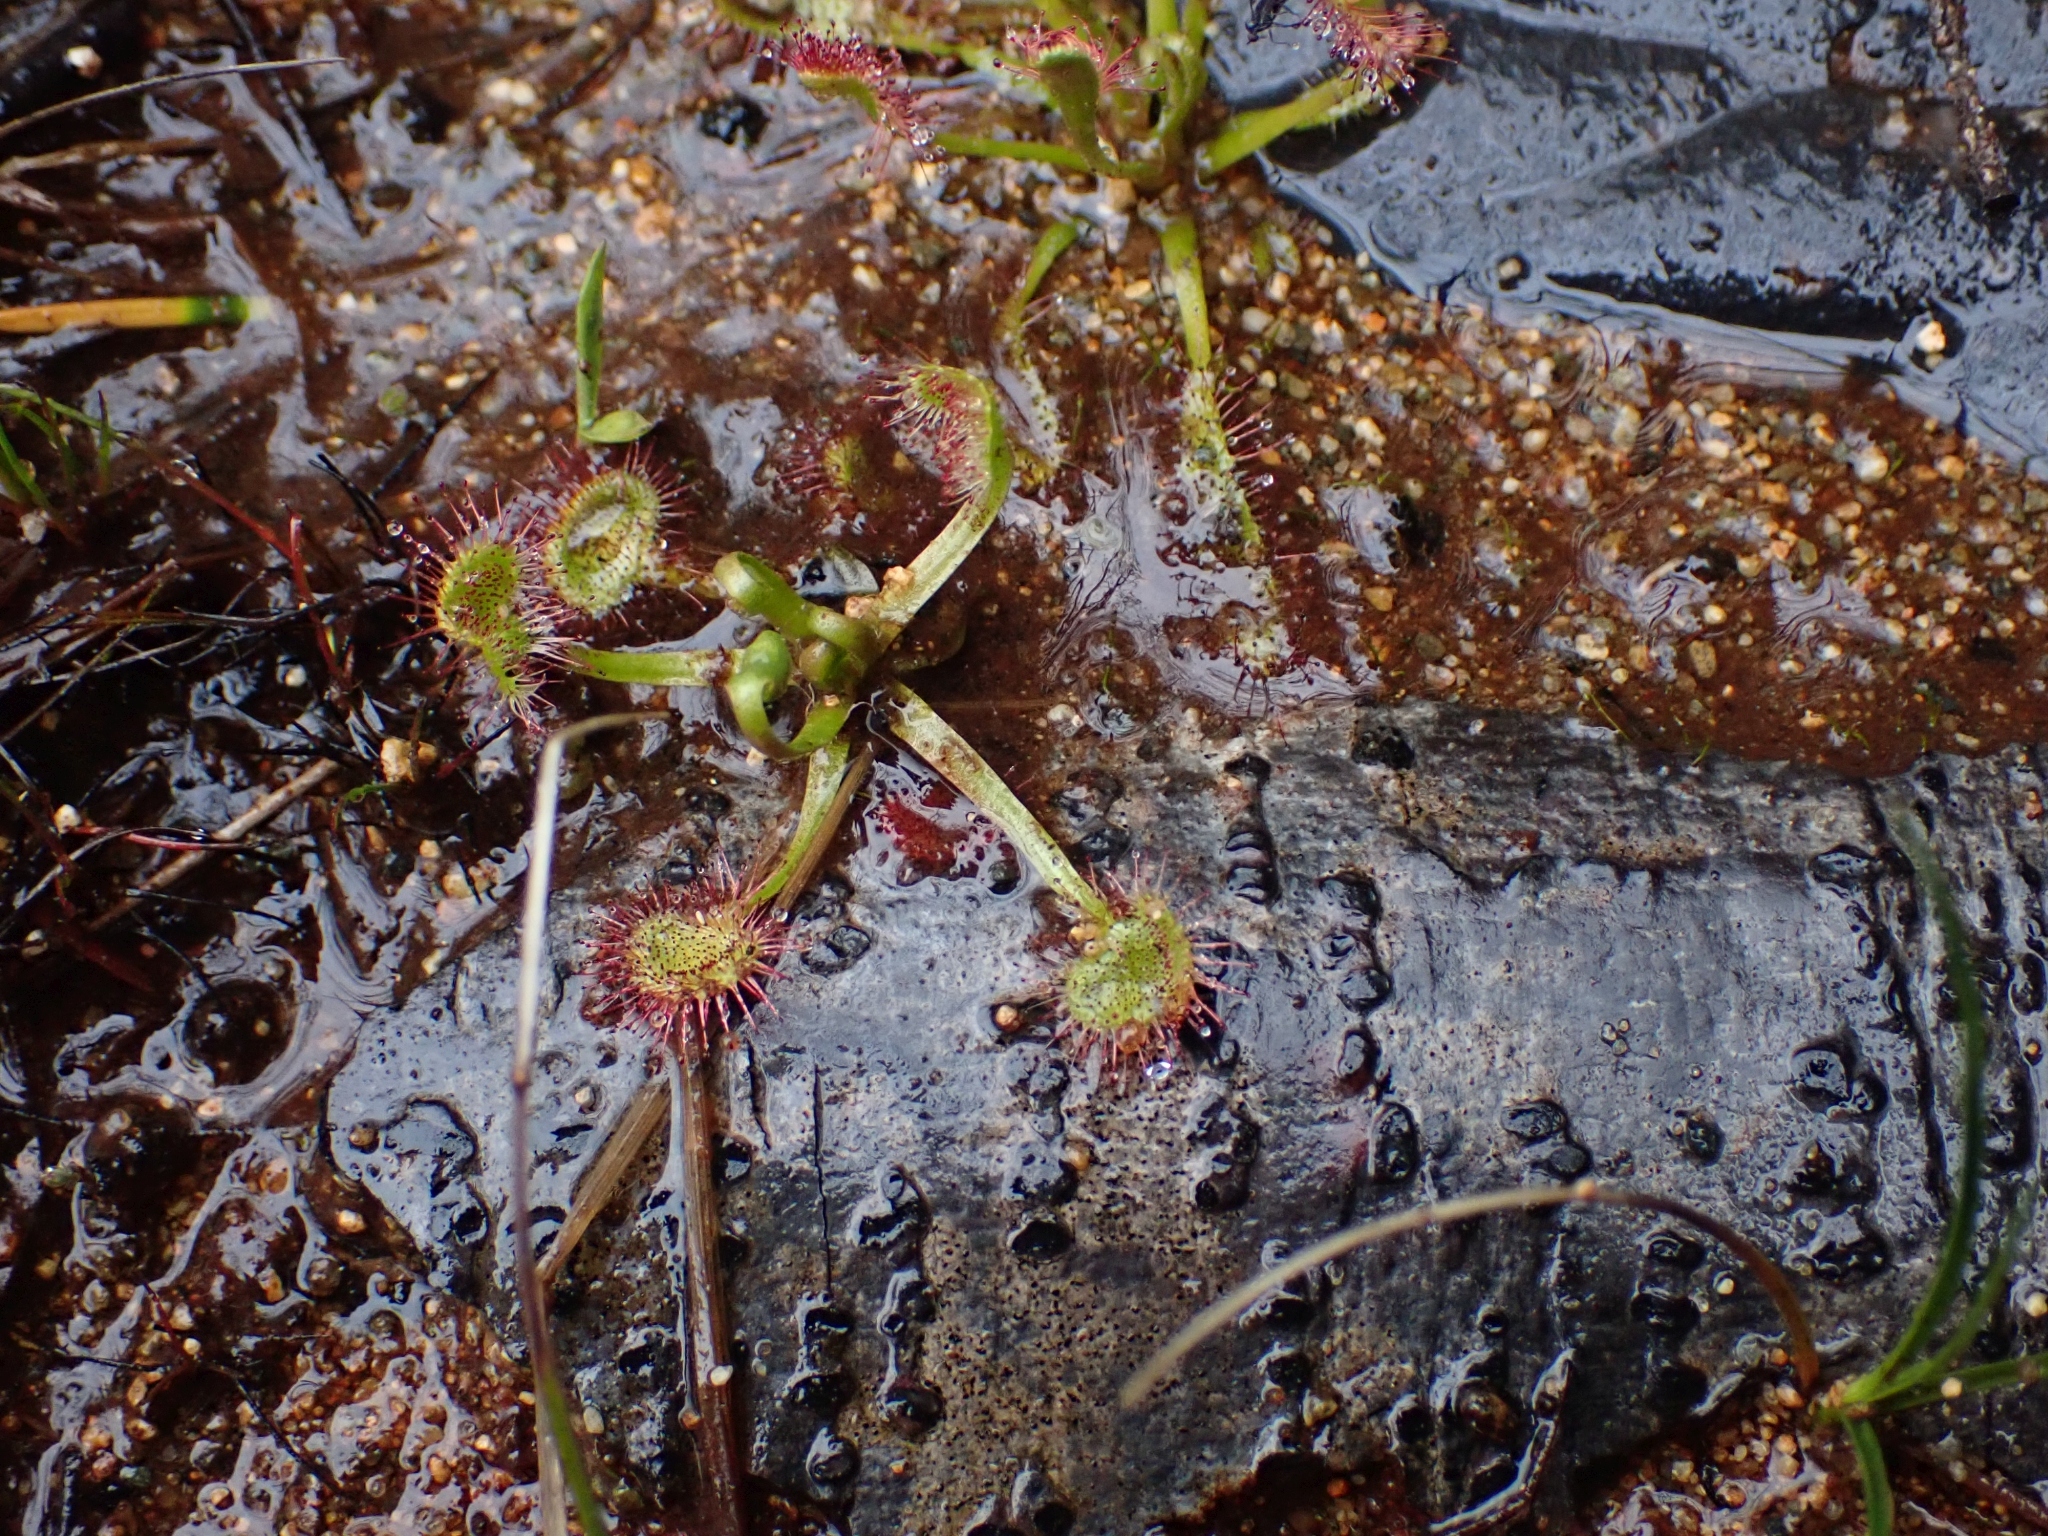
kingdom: Plantae
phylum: Tracheophyta
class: Magnoliopsida
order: Caryophyllales
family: Droseraceae
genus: Drosera
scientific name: Drosera rotundifolia
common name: Round-leaved sundew
